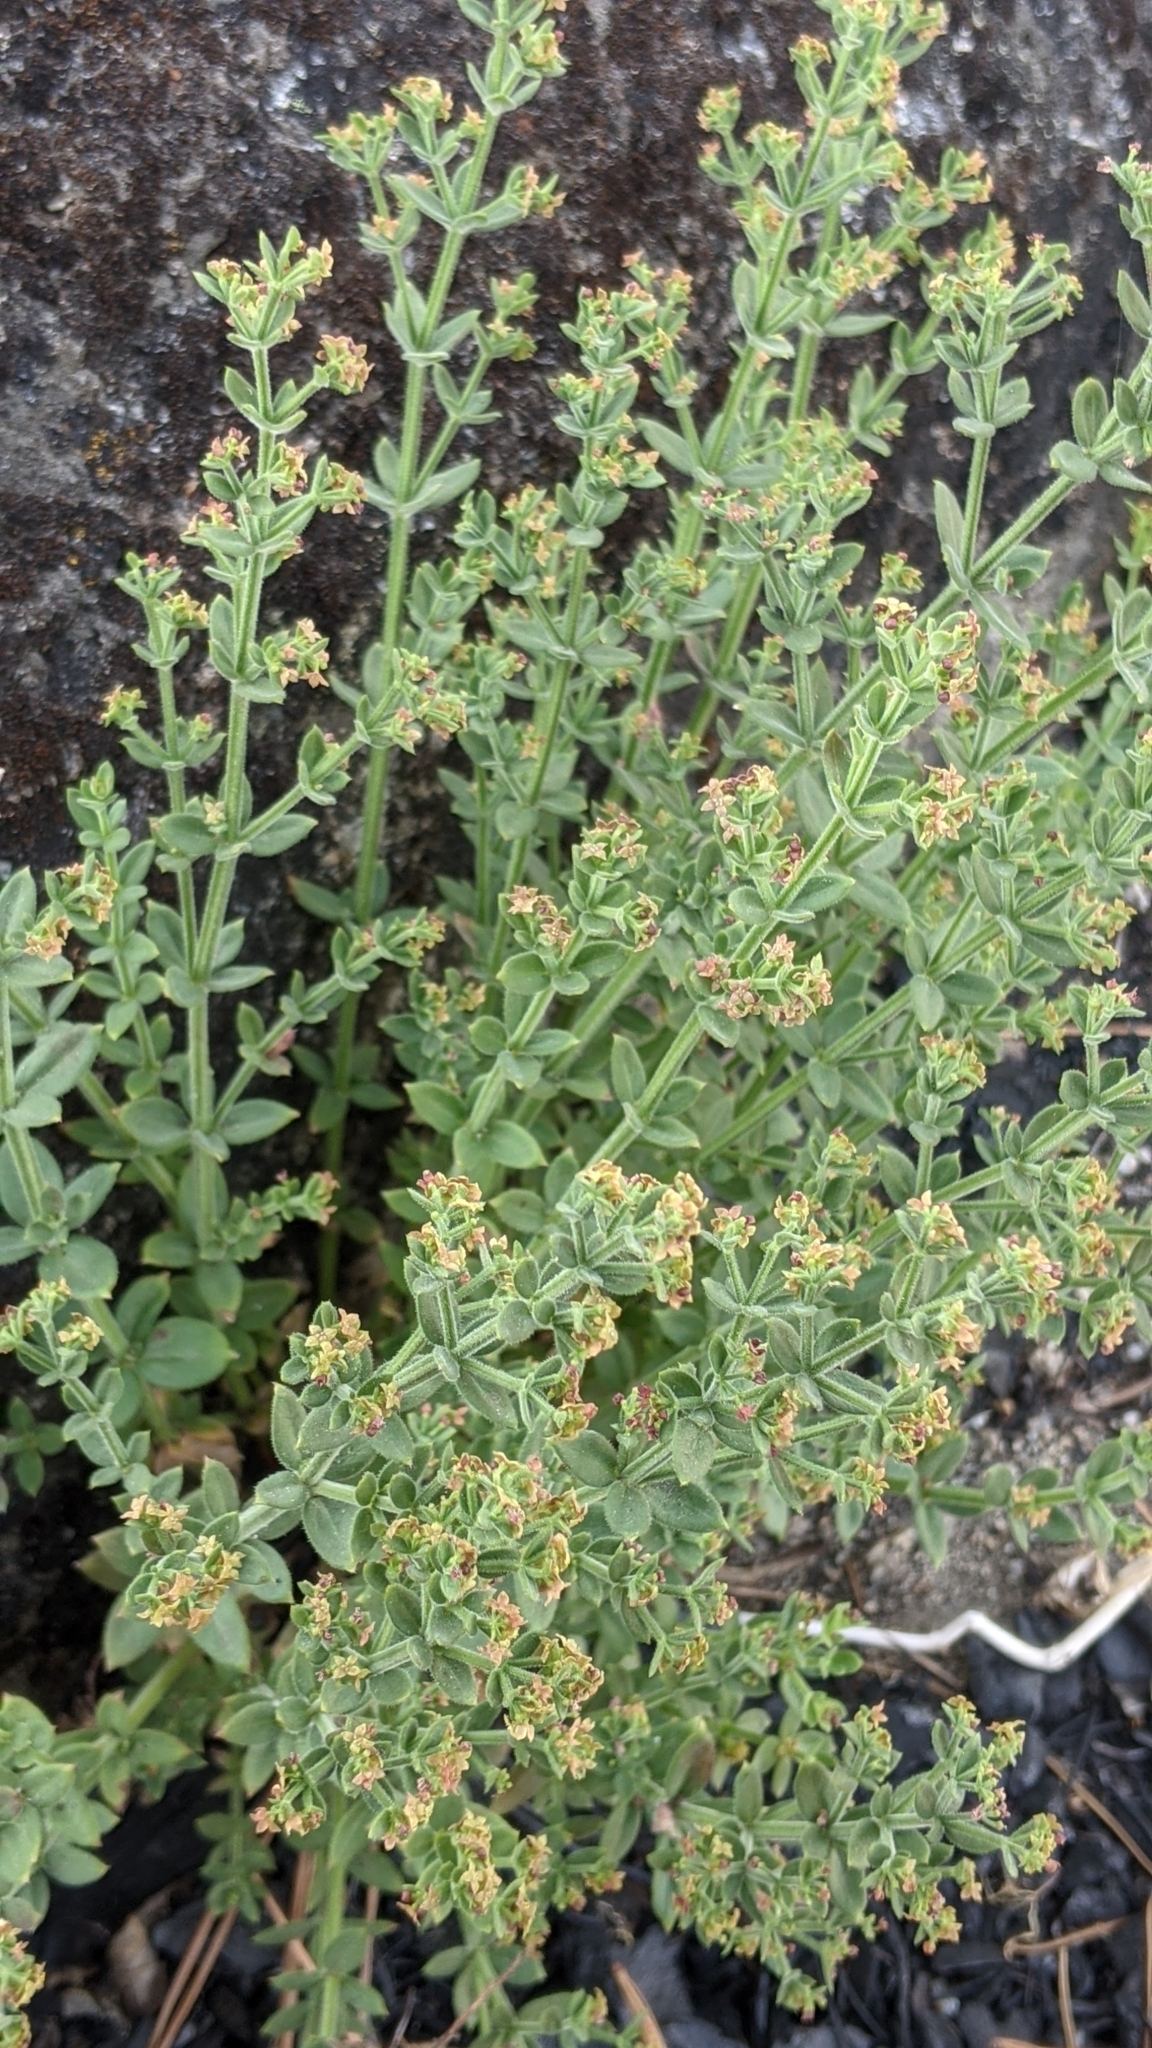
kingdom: Plantae
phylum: Tracheophyta
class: Magnoliopsida
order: Gentianales
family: Rubiaceae
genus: Galium
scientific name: Galium porrigens
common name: Climbing bedstraw
